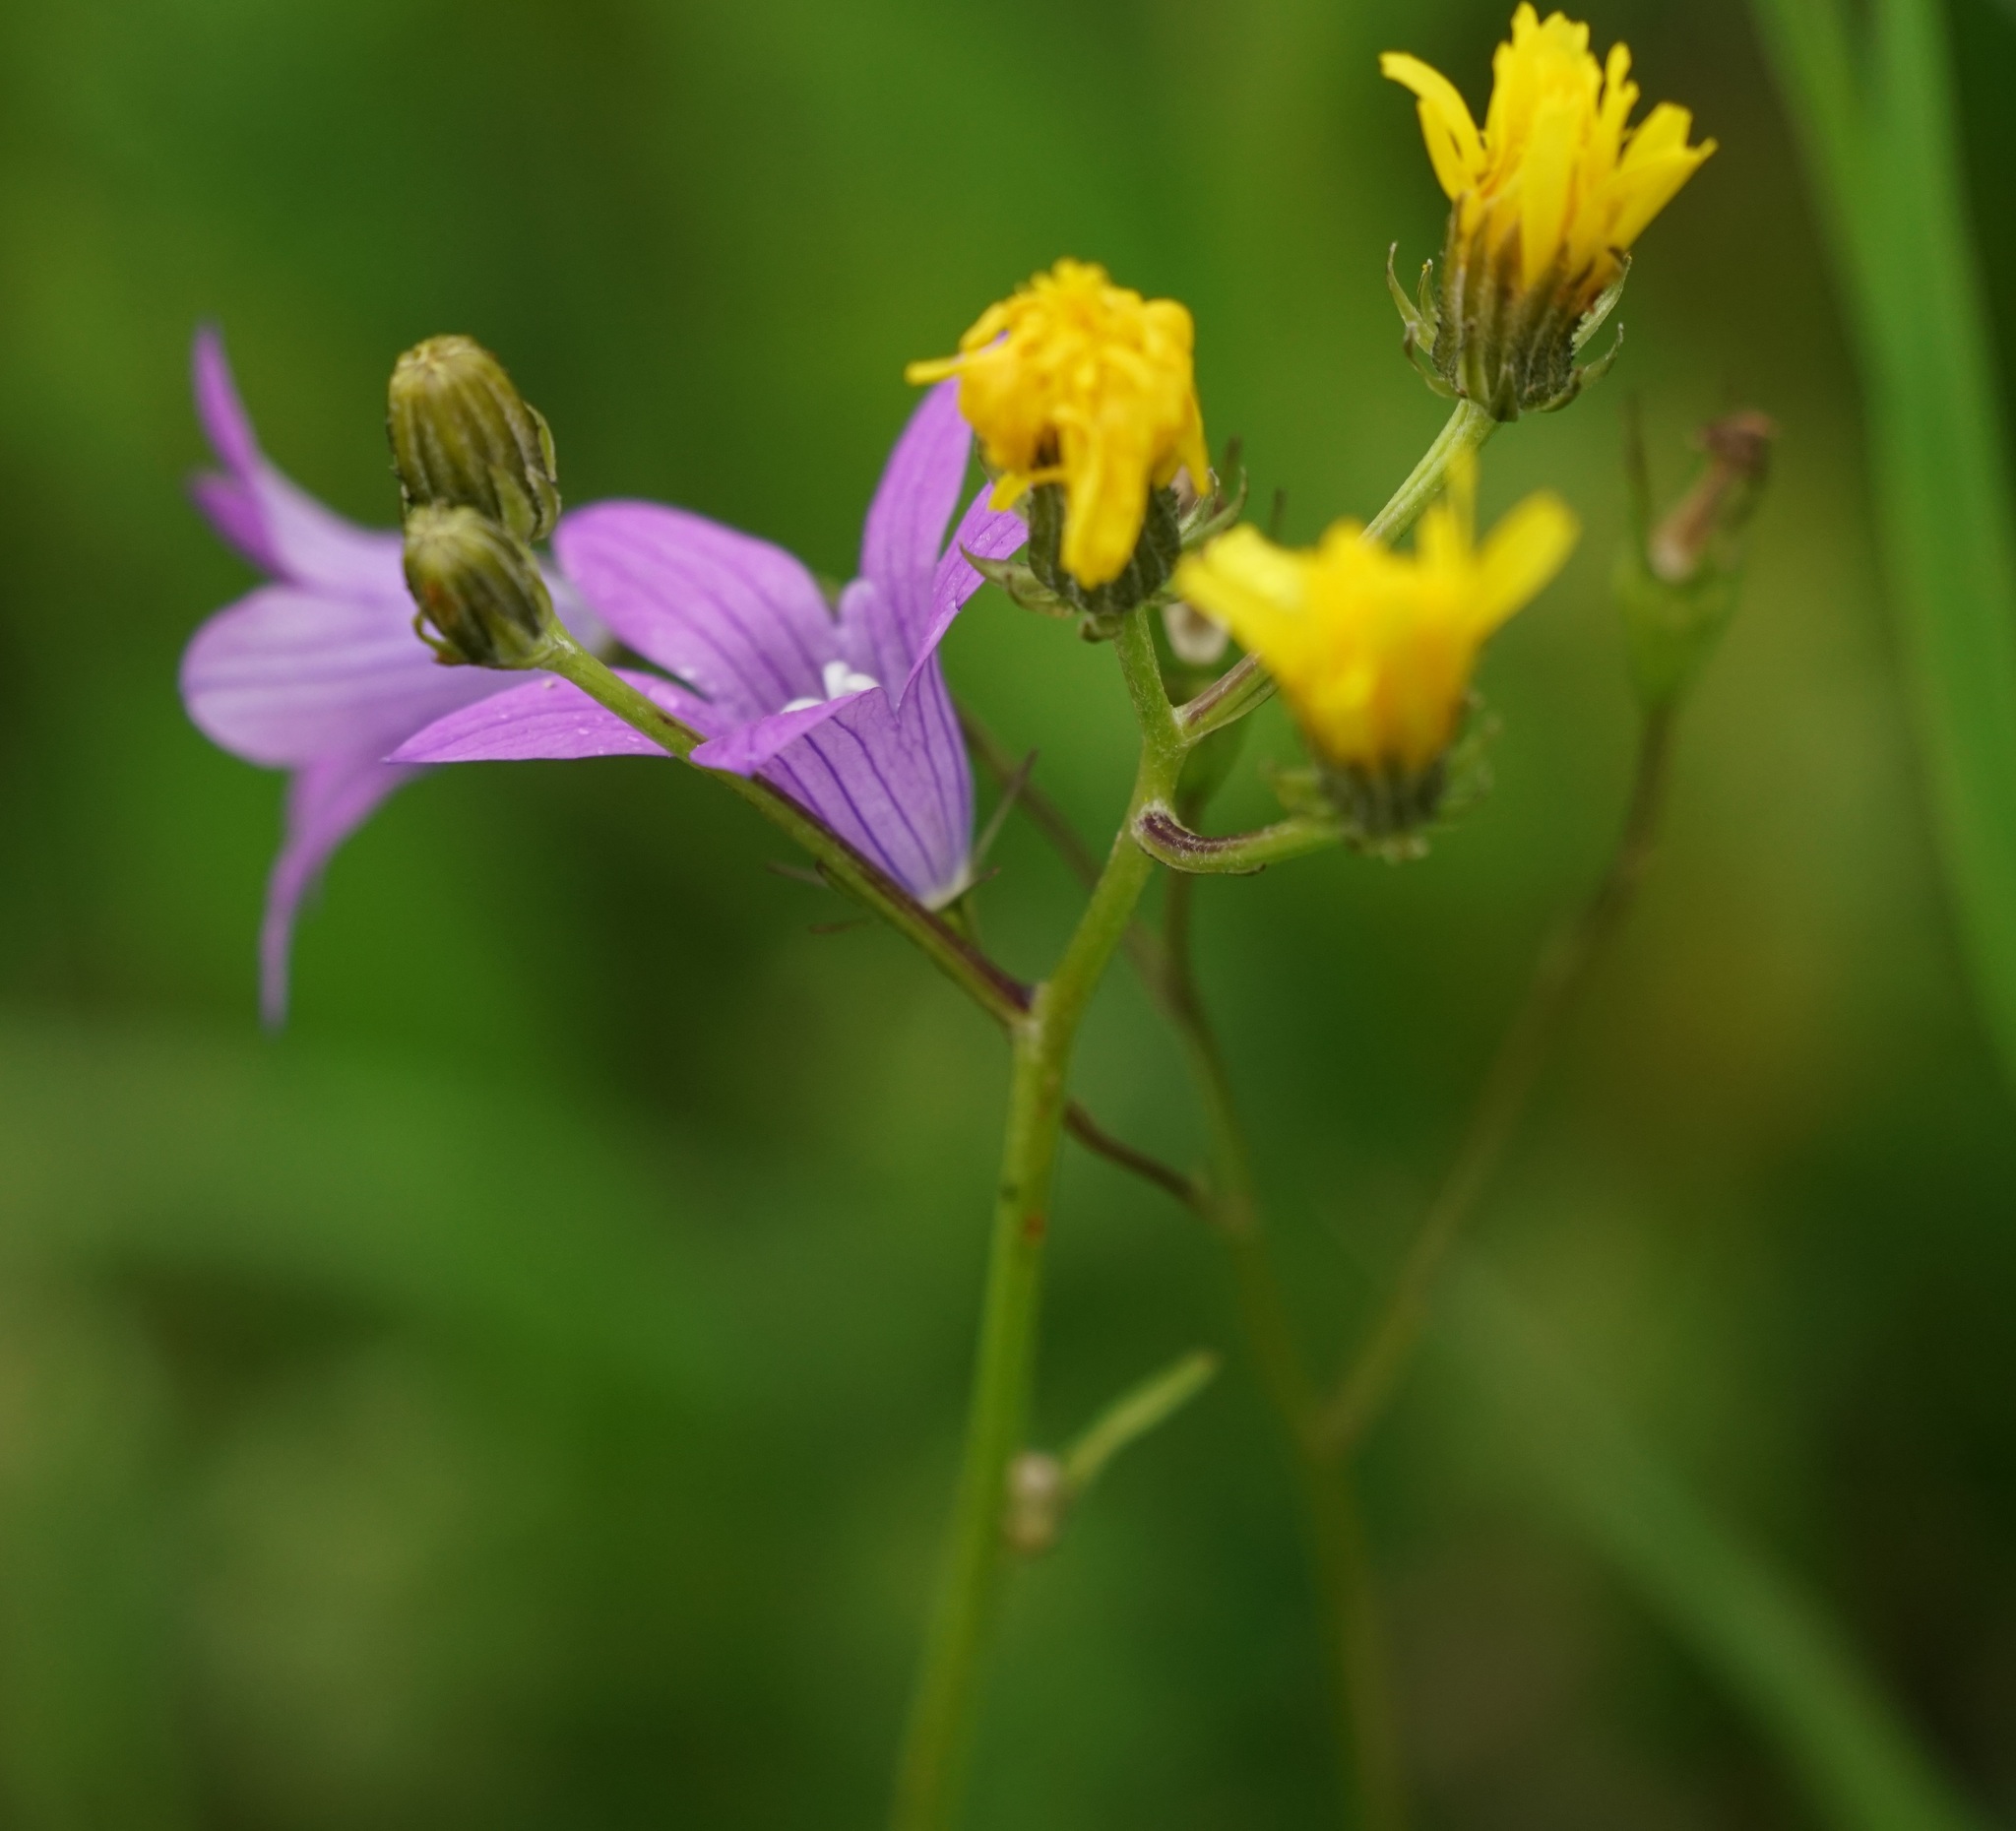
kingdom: Plantae
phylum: Tracheophyta
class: Magnoliopsida
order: Asterales
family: Campanulaceae
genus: Campanula
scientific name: Campanula patula
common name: Spreading bellflower
